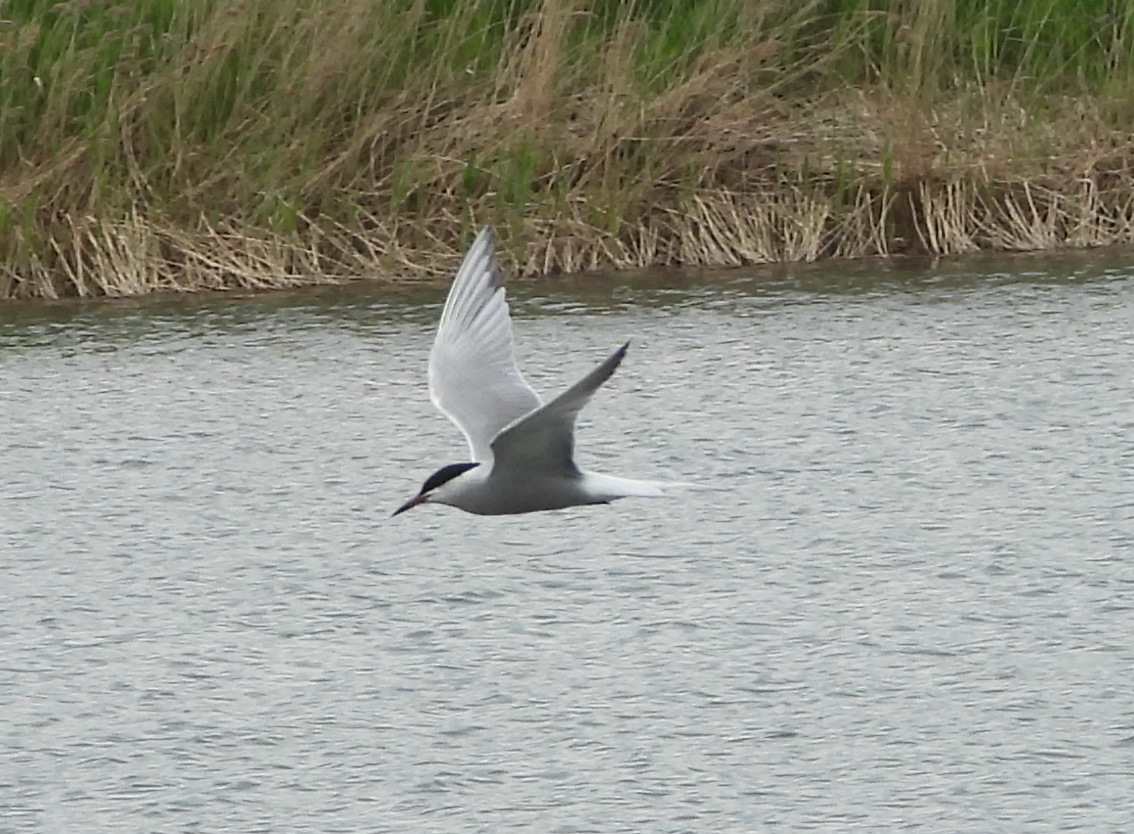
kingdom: Animalia
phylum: Chordata
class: Aves
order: Charadriiformes
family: Laridae
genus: Sterna
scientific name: Sterna hirundo
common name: Common tern
